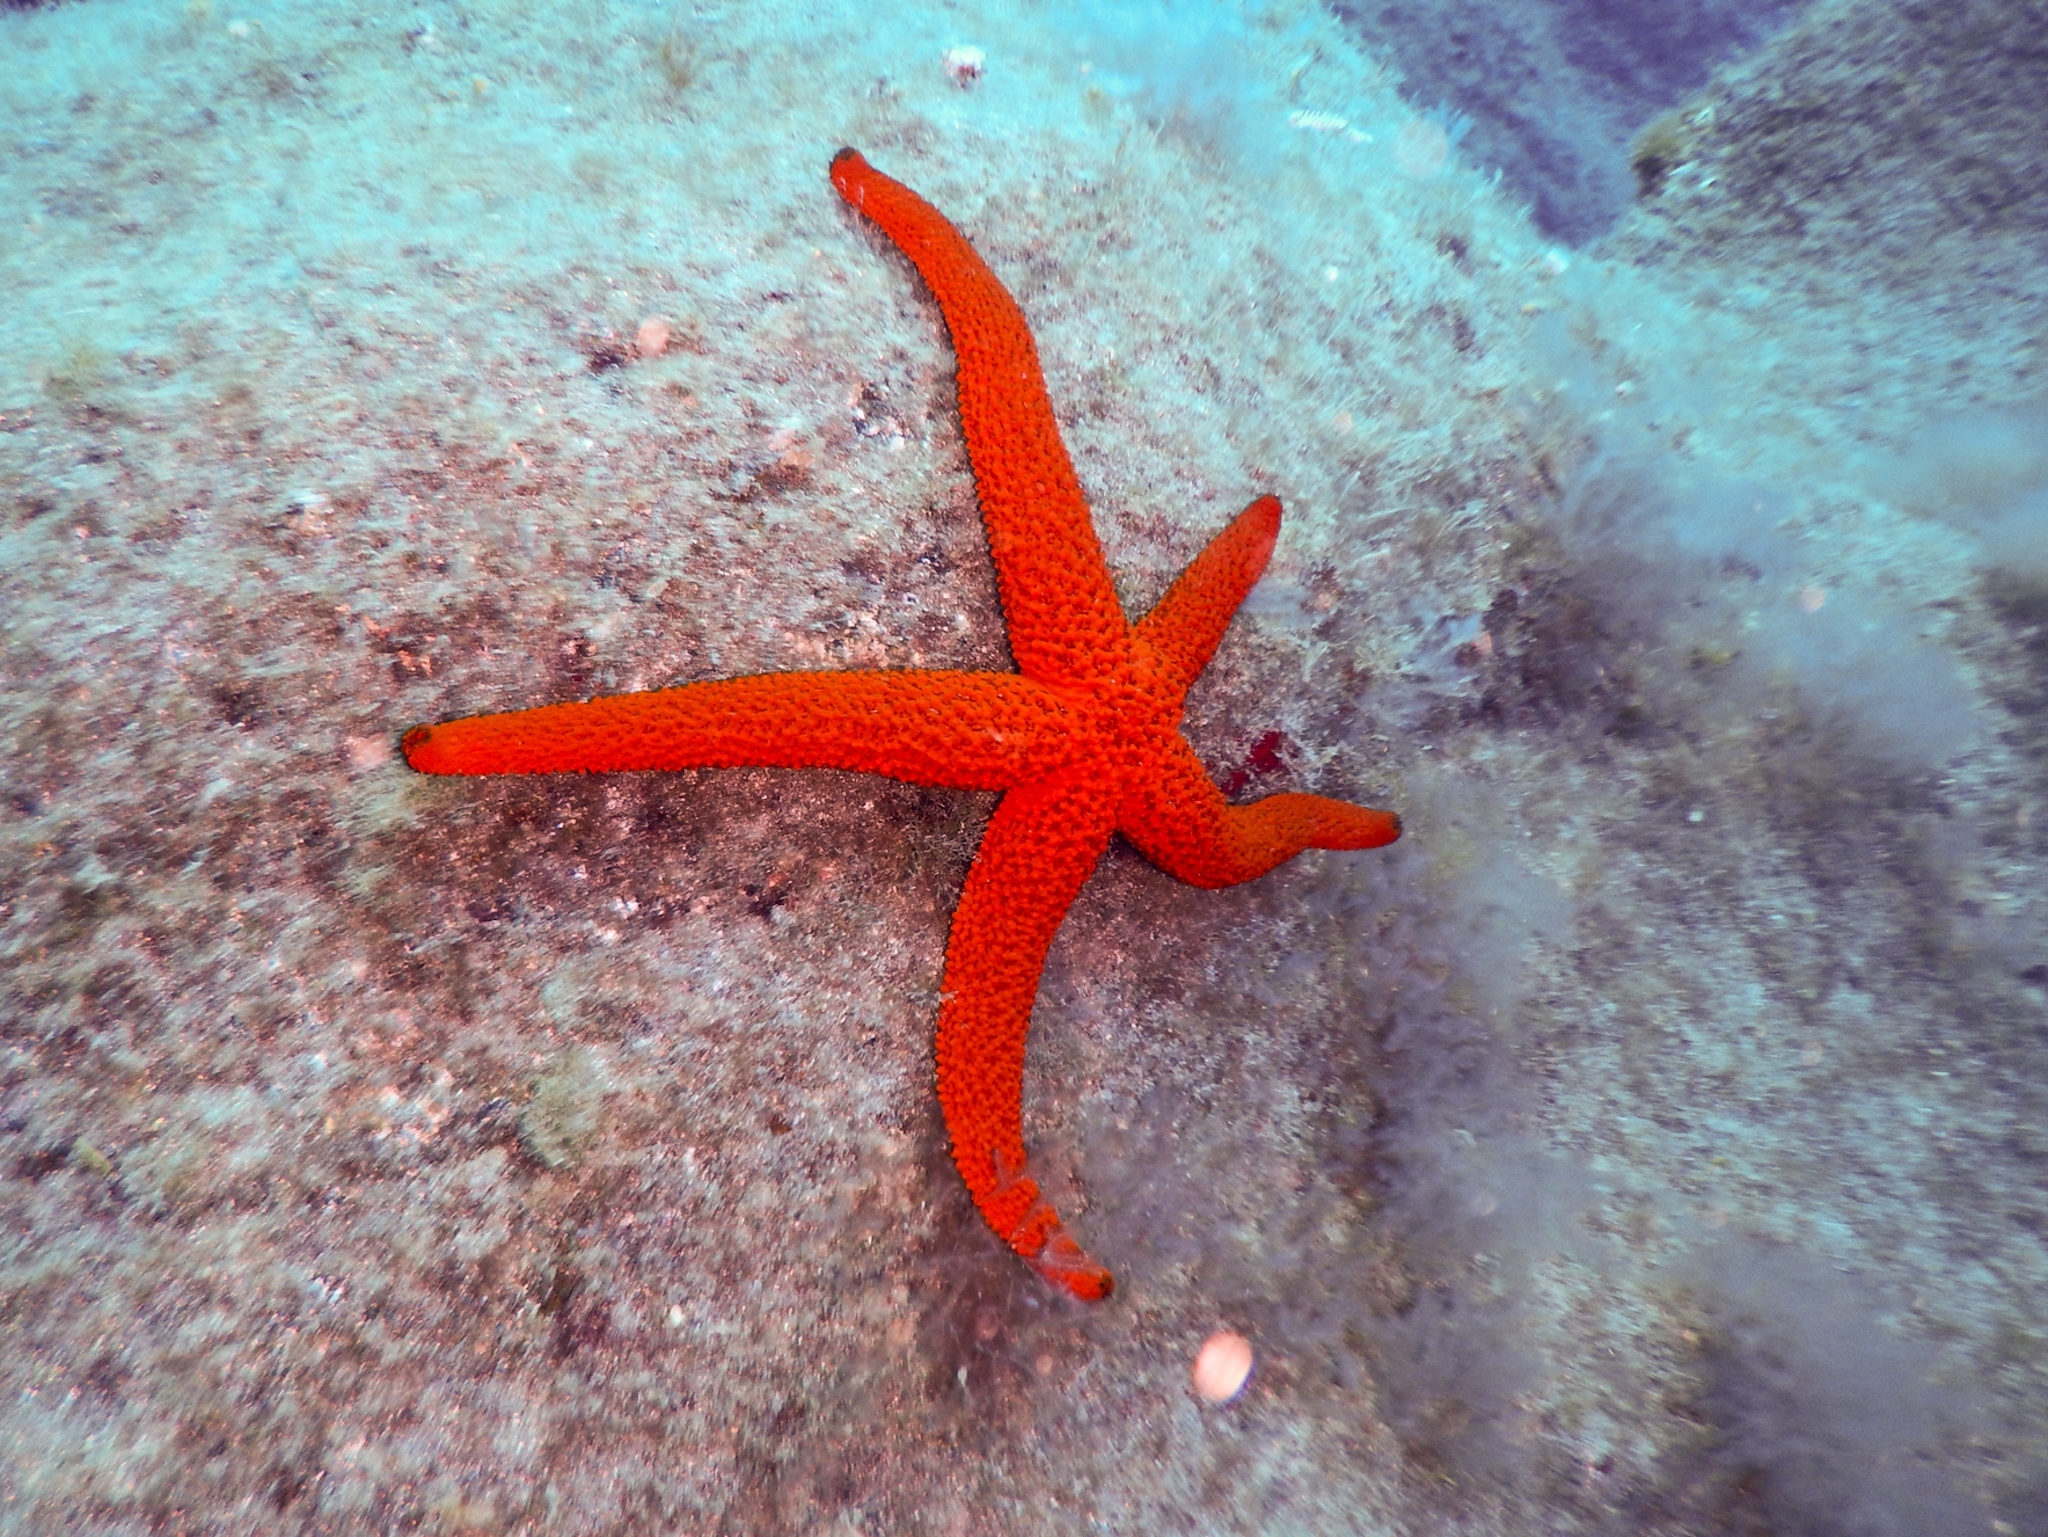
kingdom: Animalia
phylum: Echinodermata
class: Asteroidea
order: Spinulosida
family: Echinasteridae
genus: Echinaster
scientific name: Echinaster sepositus
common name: Red starfish
